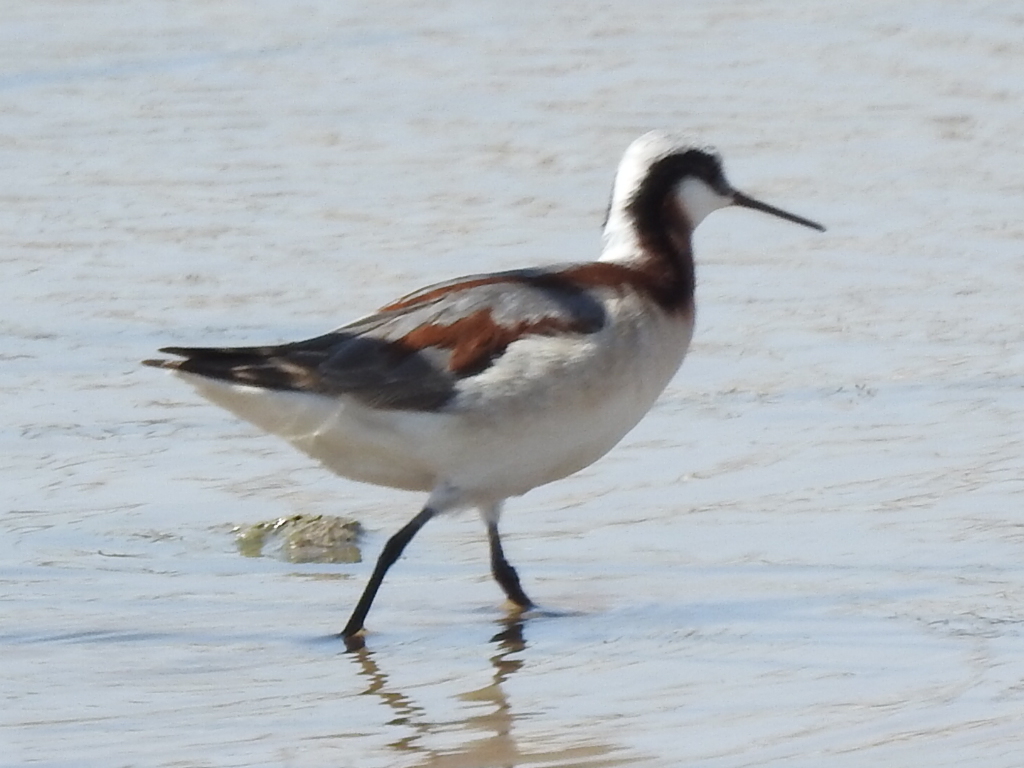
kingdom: Animalia
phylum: Chordata
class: Aves
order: Charadriiformes
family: Scolopacidae
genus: Phalaropus
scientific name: Phalaropus tricolor
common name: Wilson's phalarope
